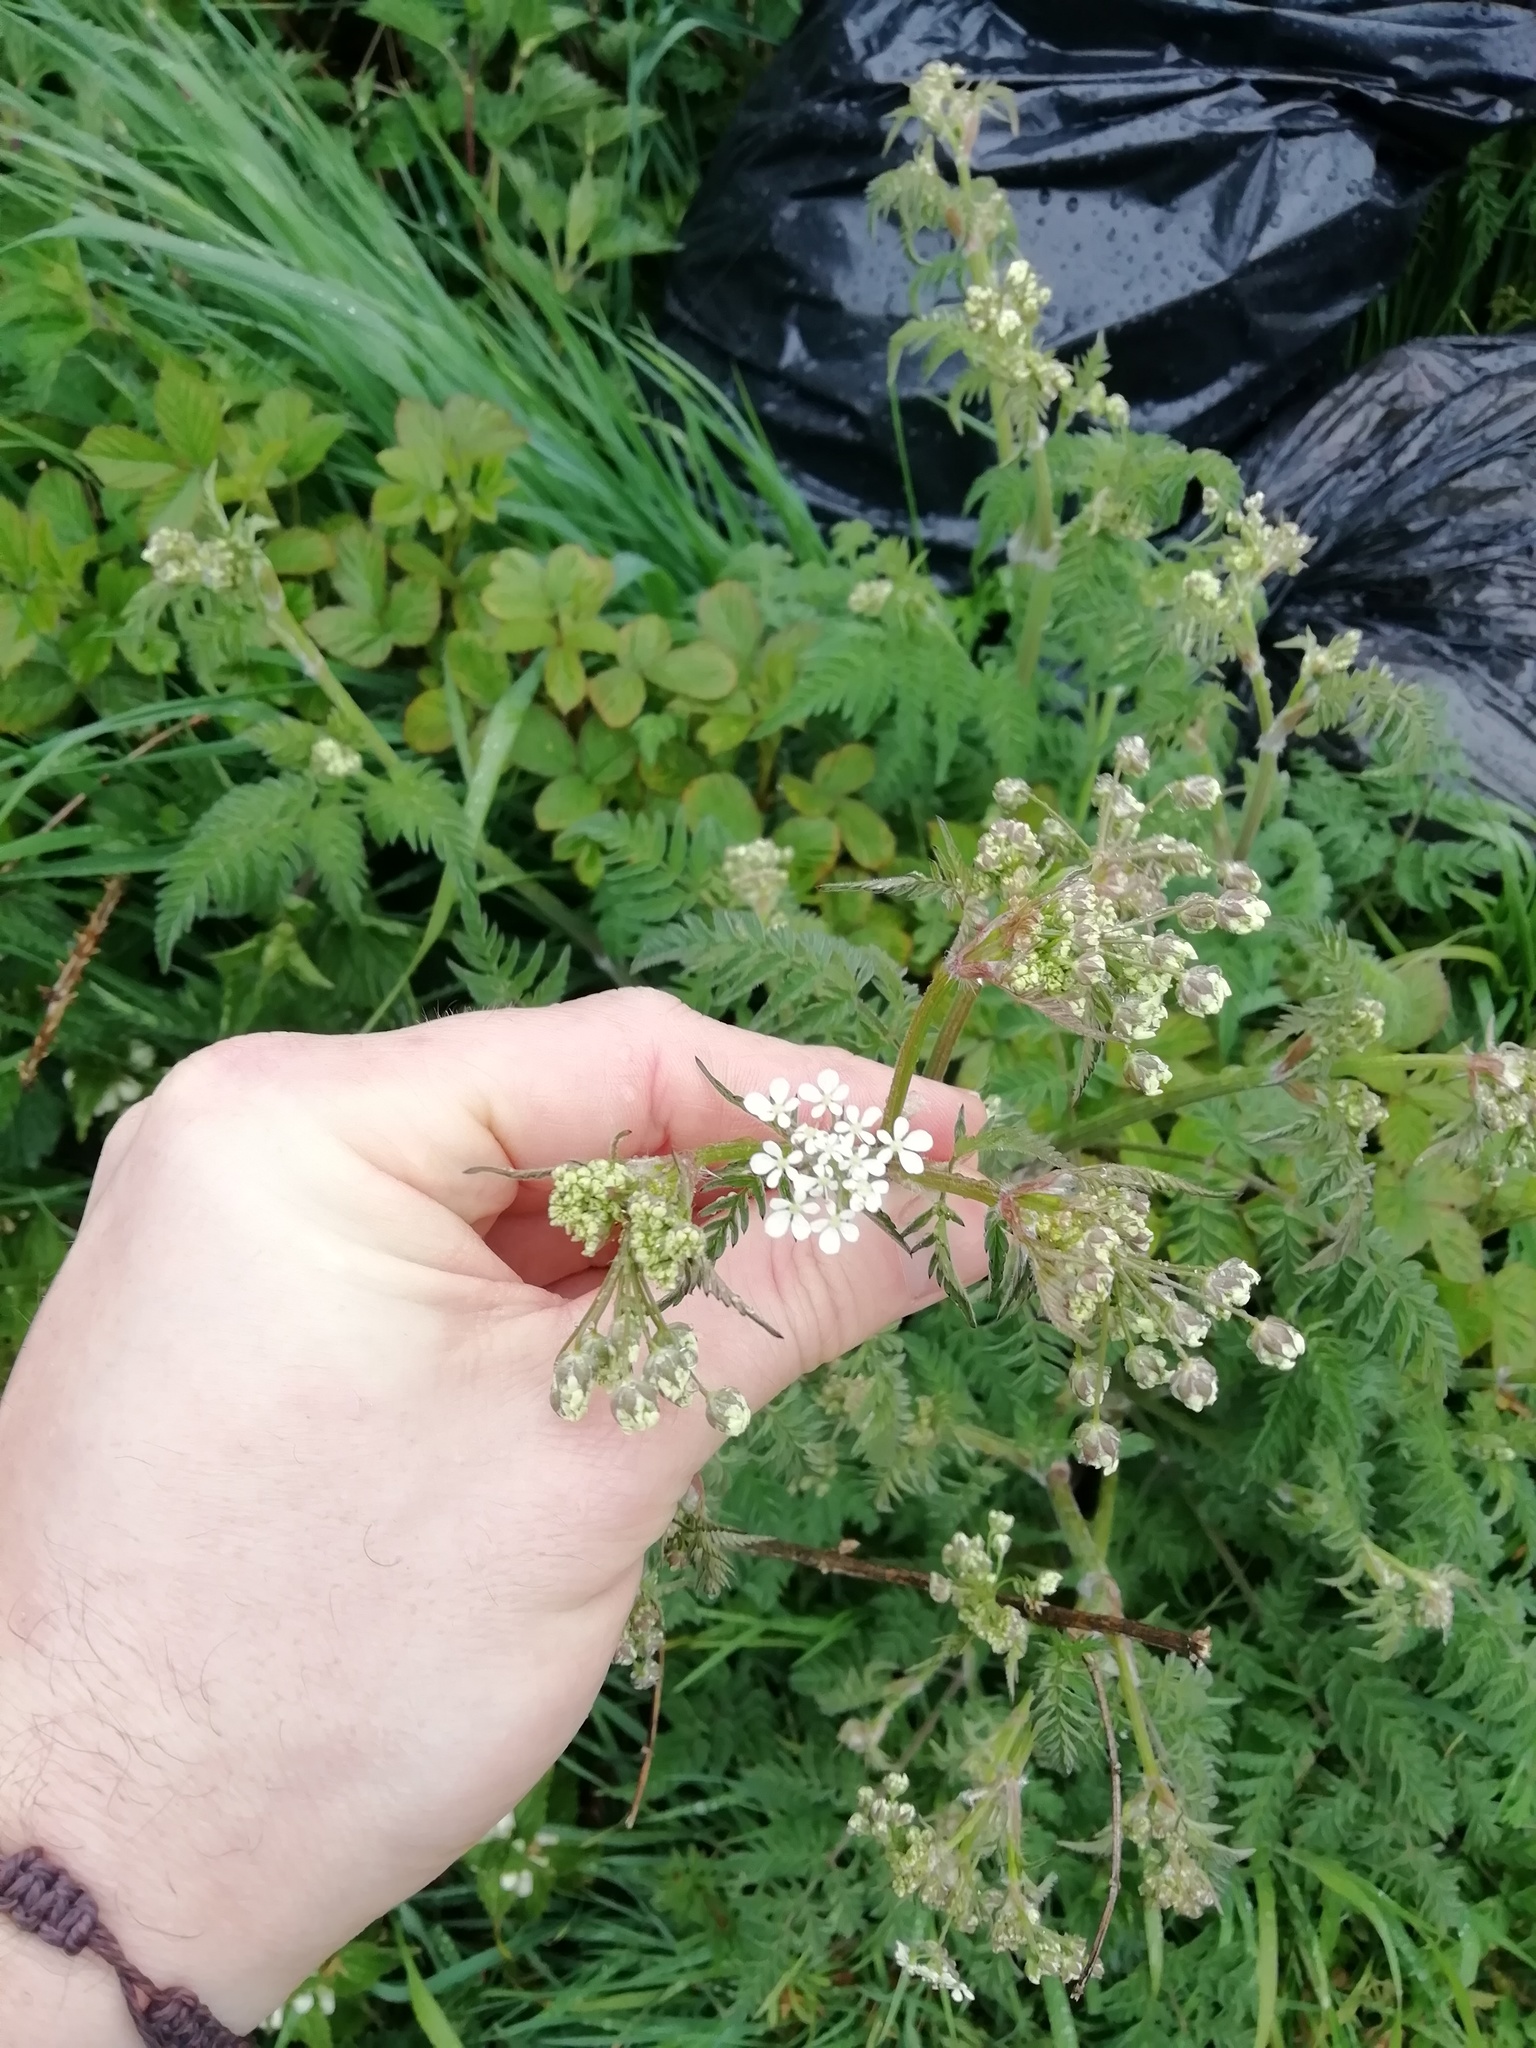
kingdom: Plantae
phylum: Tracheophyta
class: Magnoliopsida
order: Apiales
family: Apiaceae
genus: Anthriscus
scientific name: Anthriscus sylvestris
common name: Cow parsley
